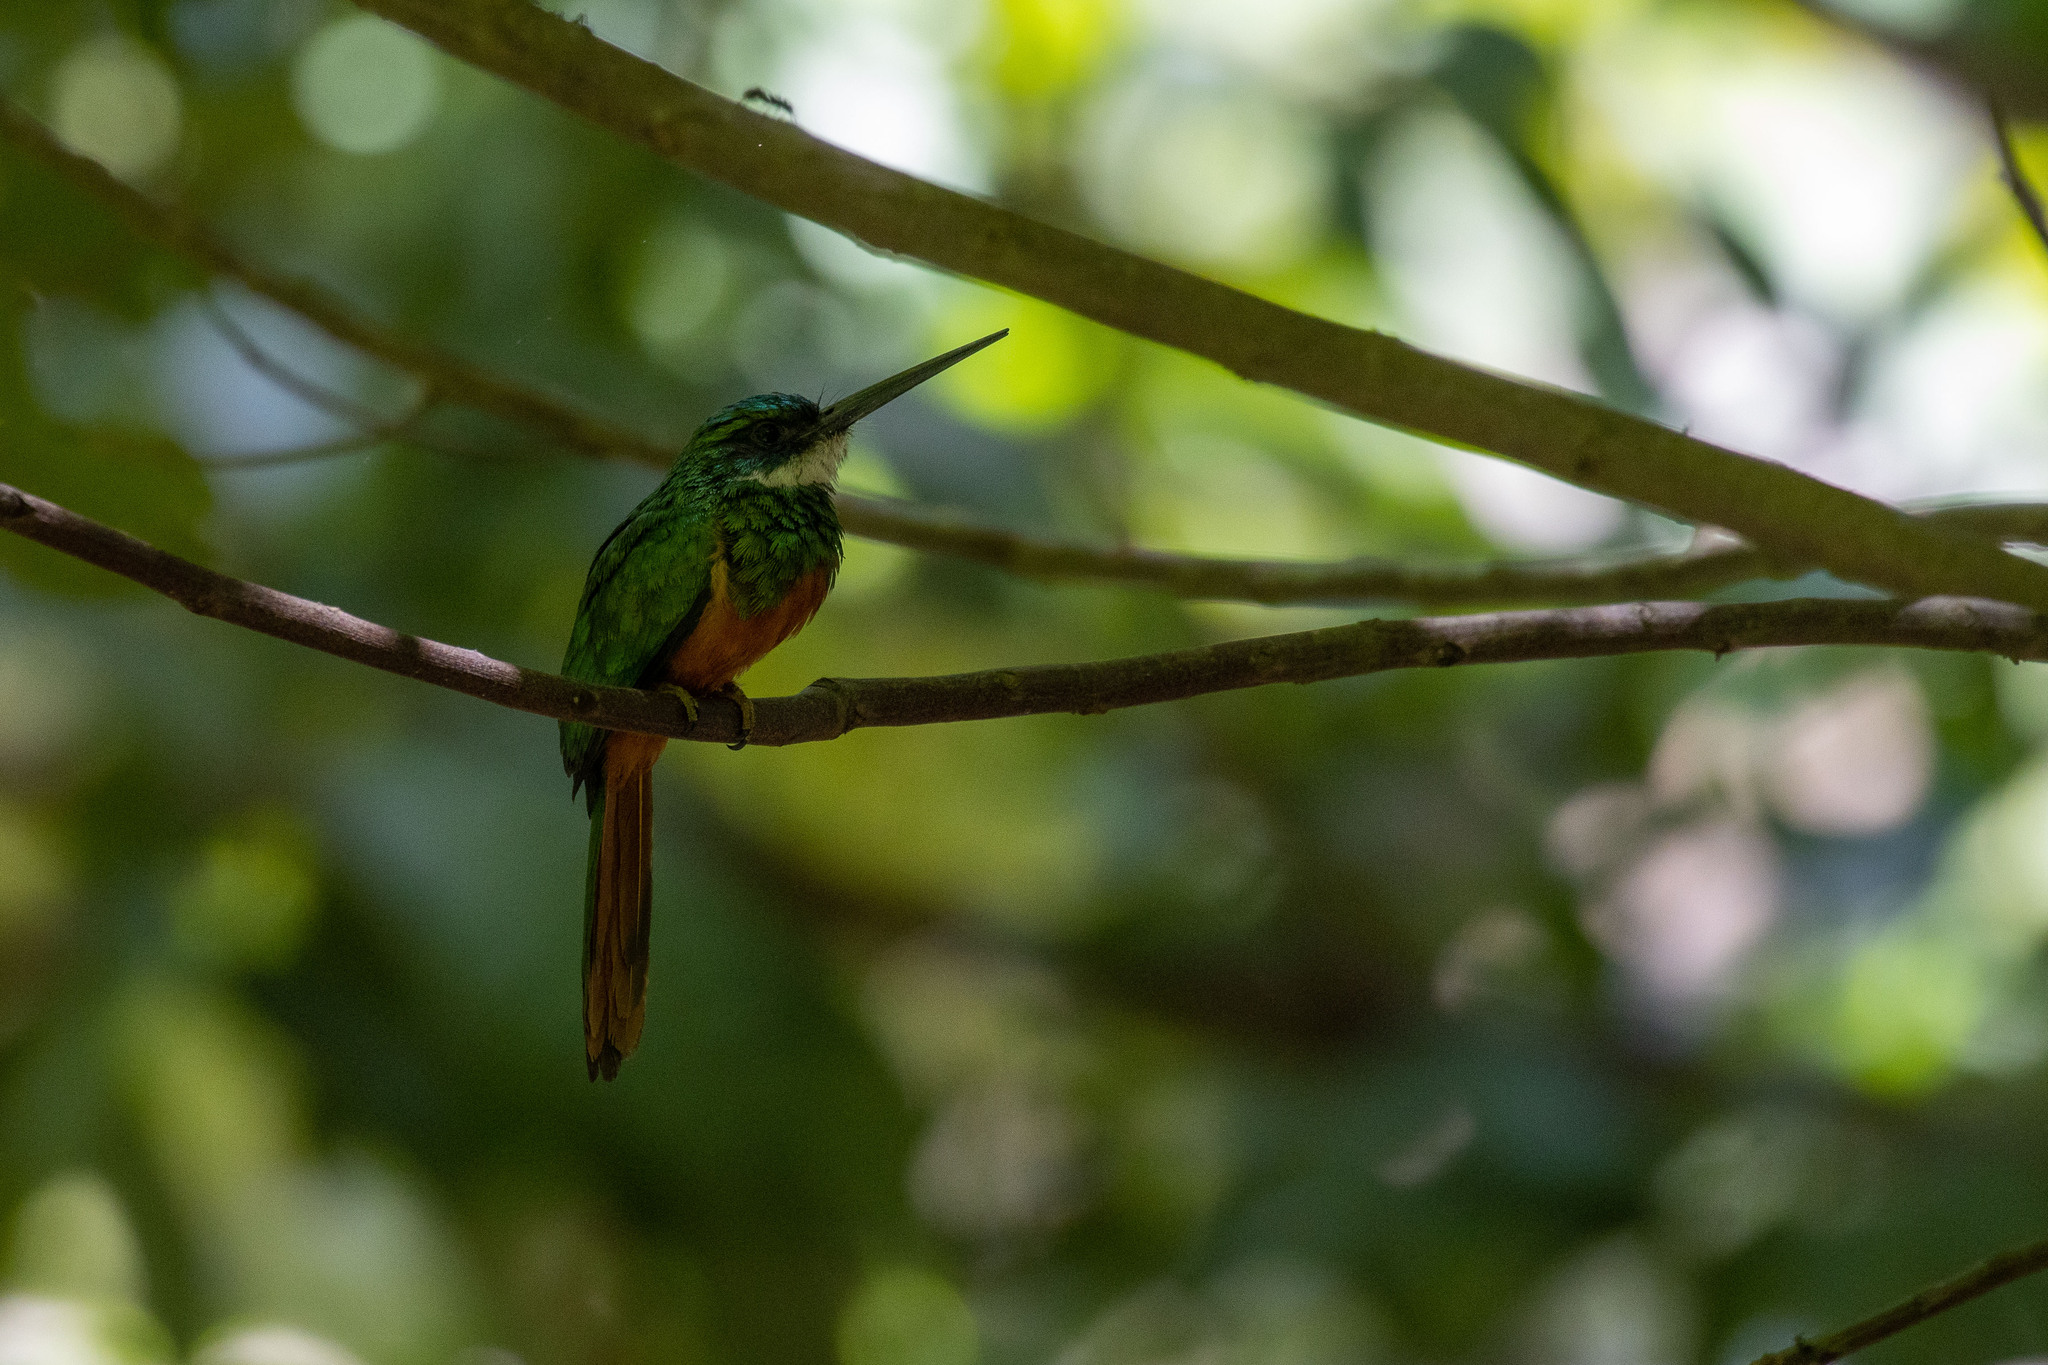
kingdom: Animalia
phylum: Chordata
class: Aves
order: Piciformes
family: Galbulidae
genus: Galbula
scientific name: Galbula ruficauda
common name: Rufous-tailed jacamar
